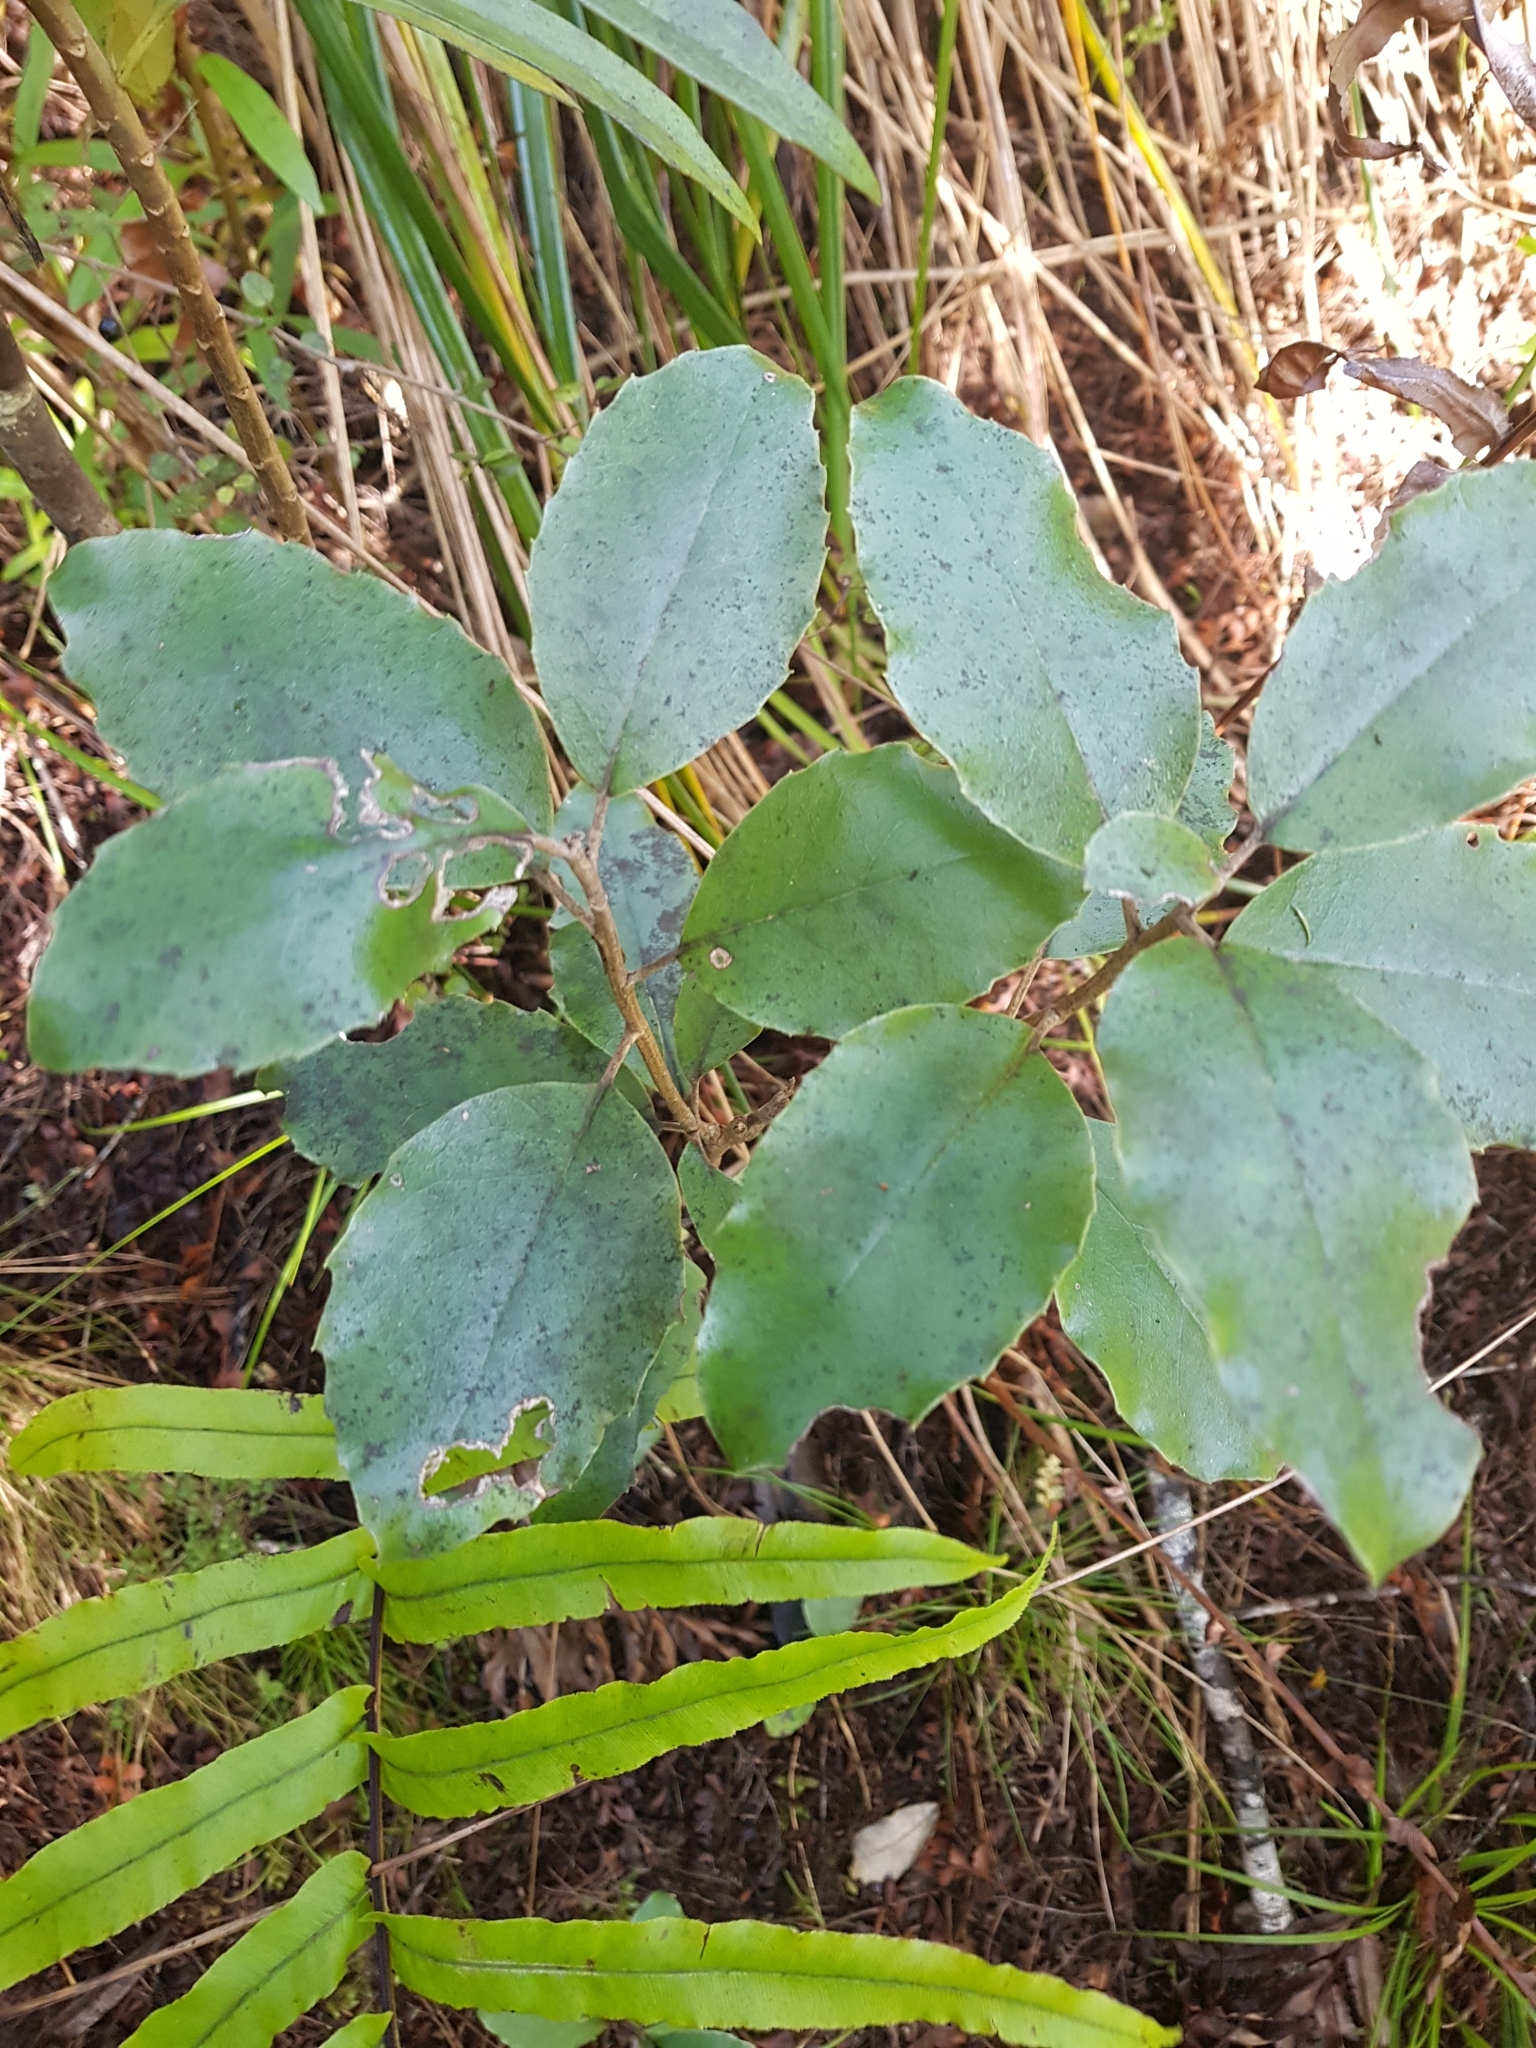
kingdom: Plantae
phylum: Tracheophyta
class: Magnoliopsida
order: Asterales
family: Asteraceae
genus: Olearia
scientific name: Olearia furfuracea
